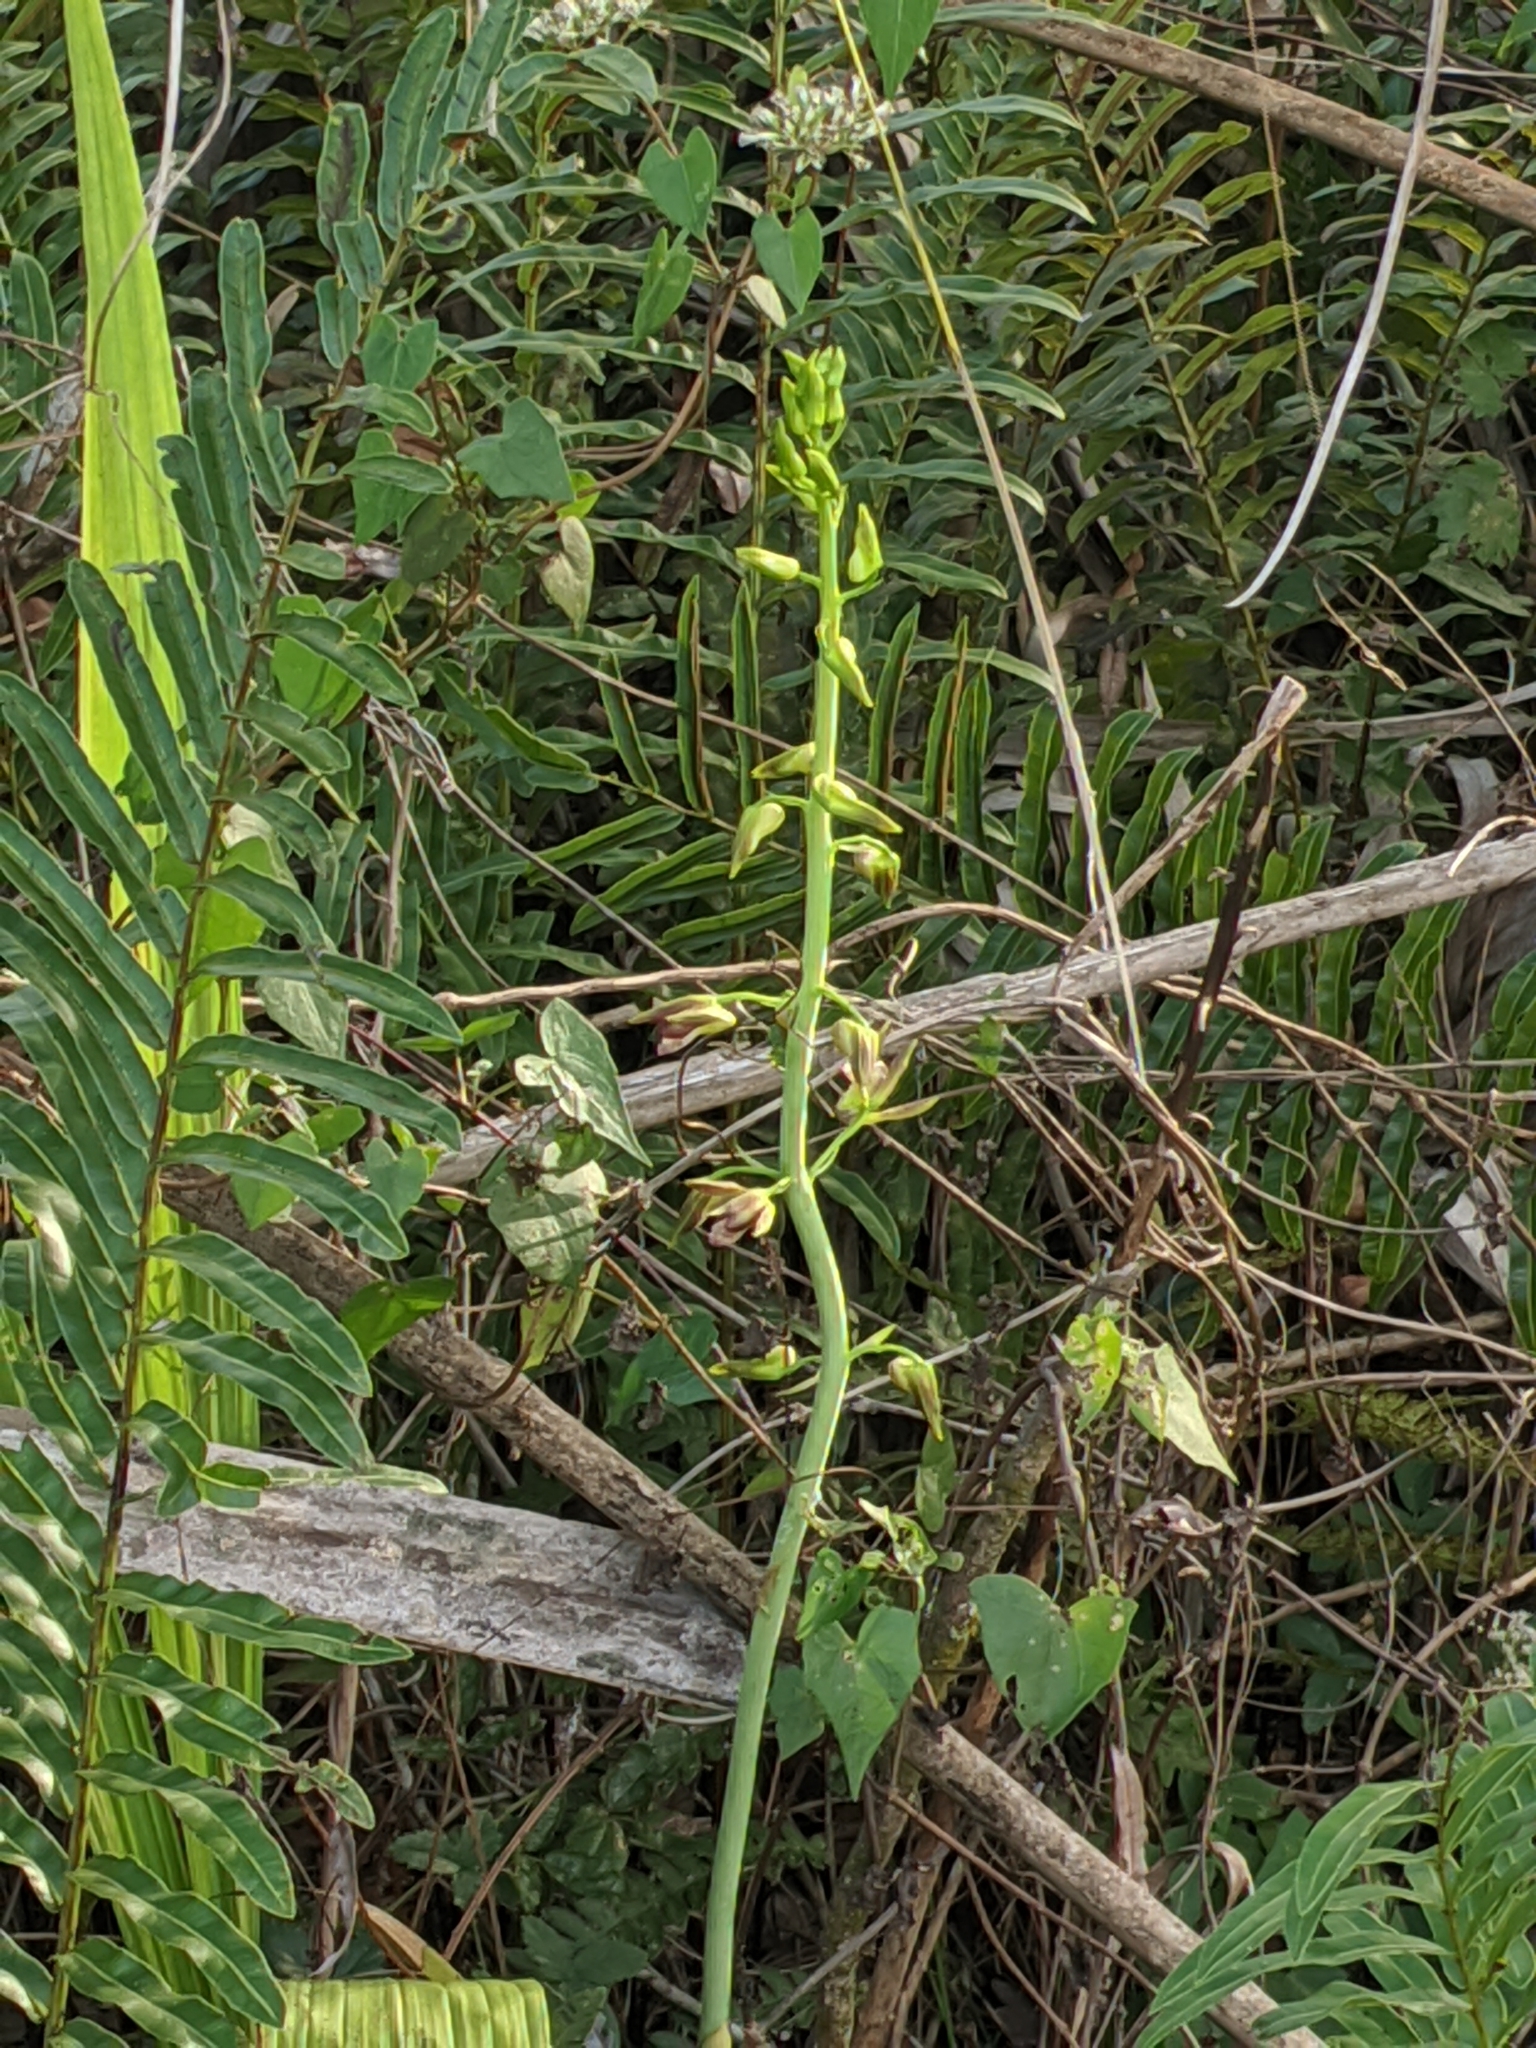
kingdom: Plantae
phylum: Tracheophyta
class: Liliopsida
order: Asparagales
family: Orchidaceae
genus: Eulophia
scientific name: Eulophia alta
